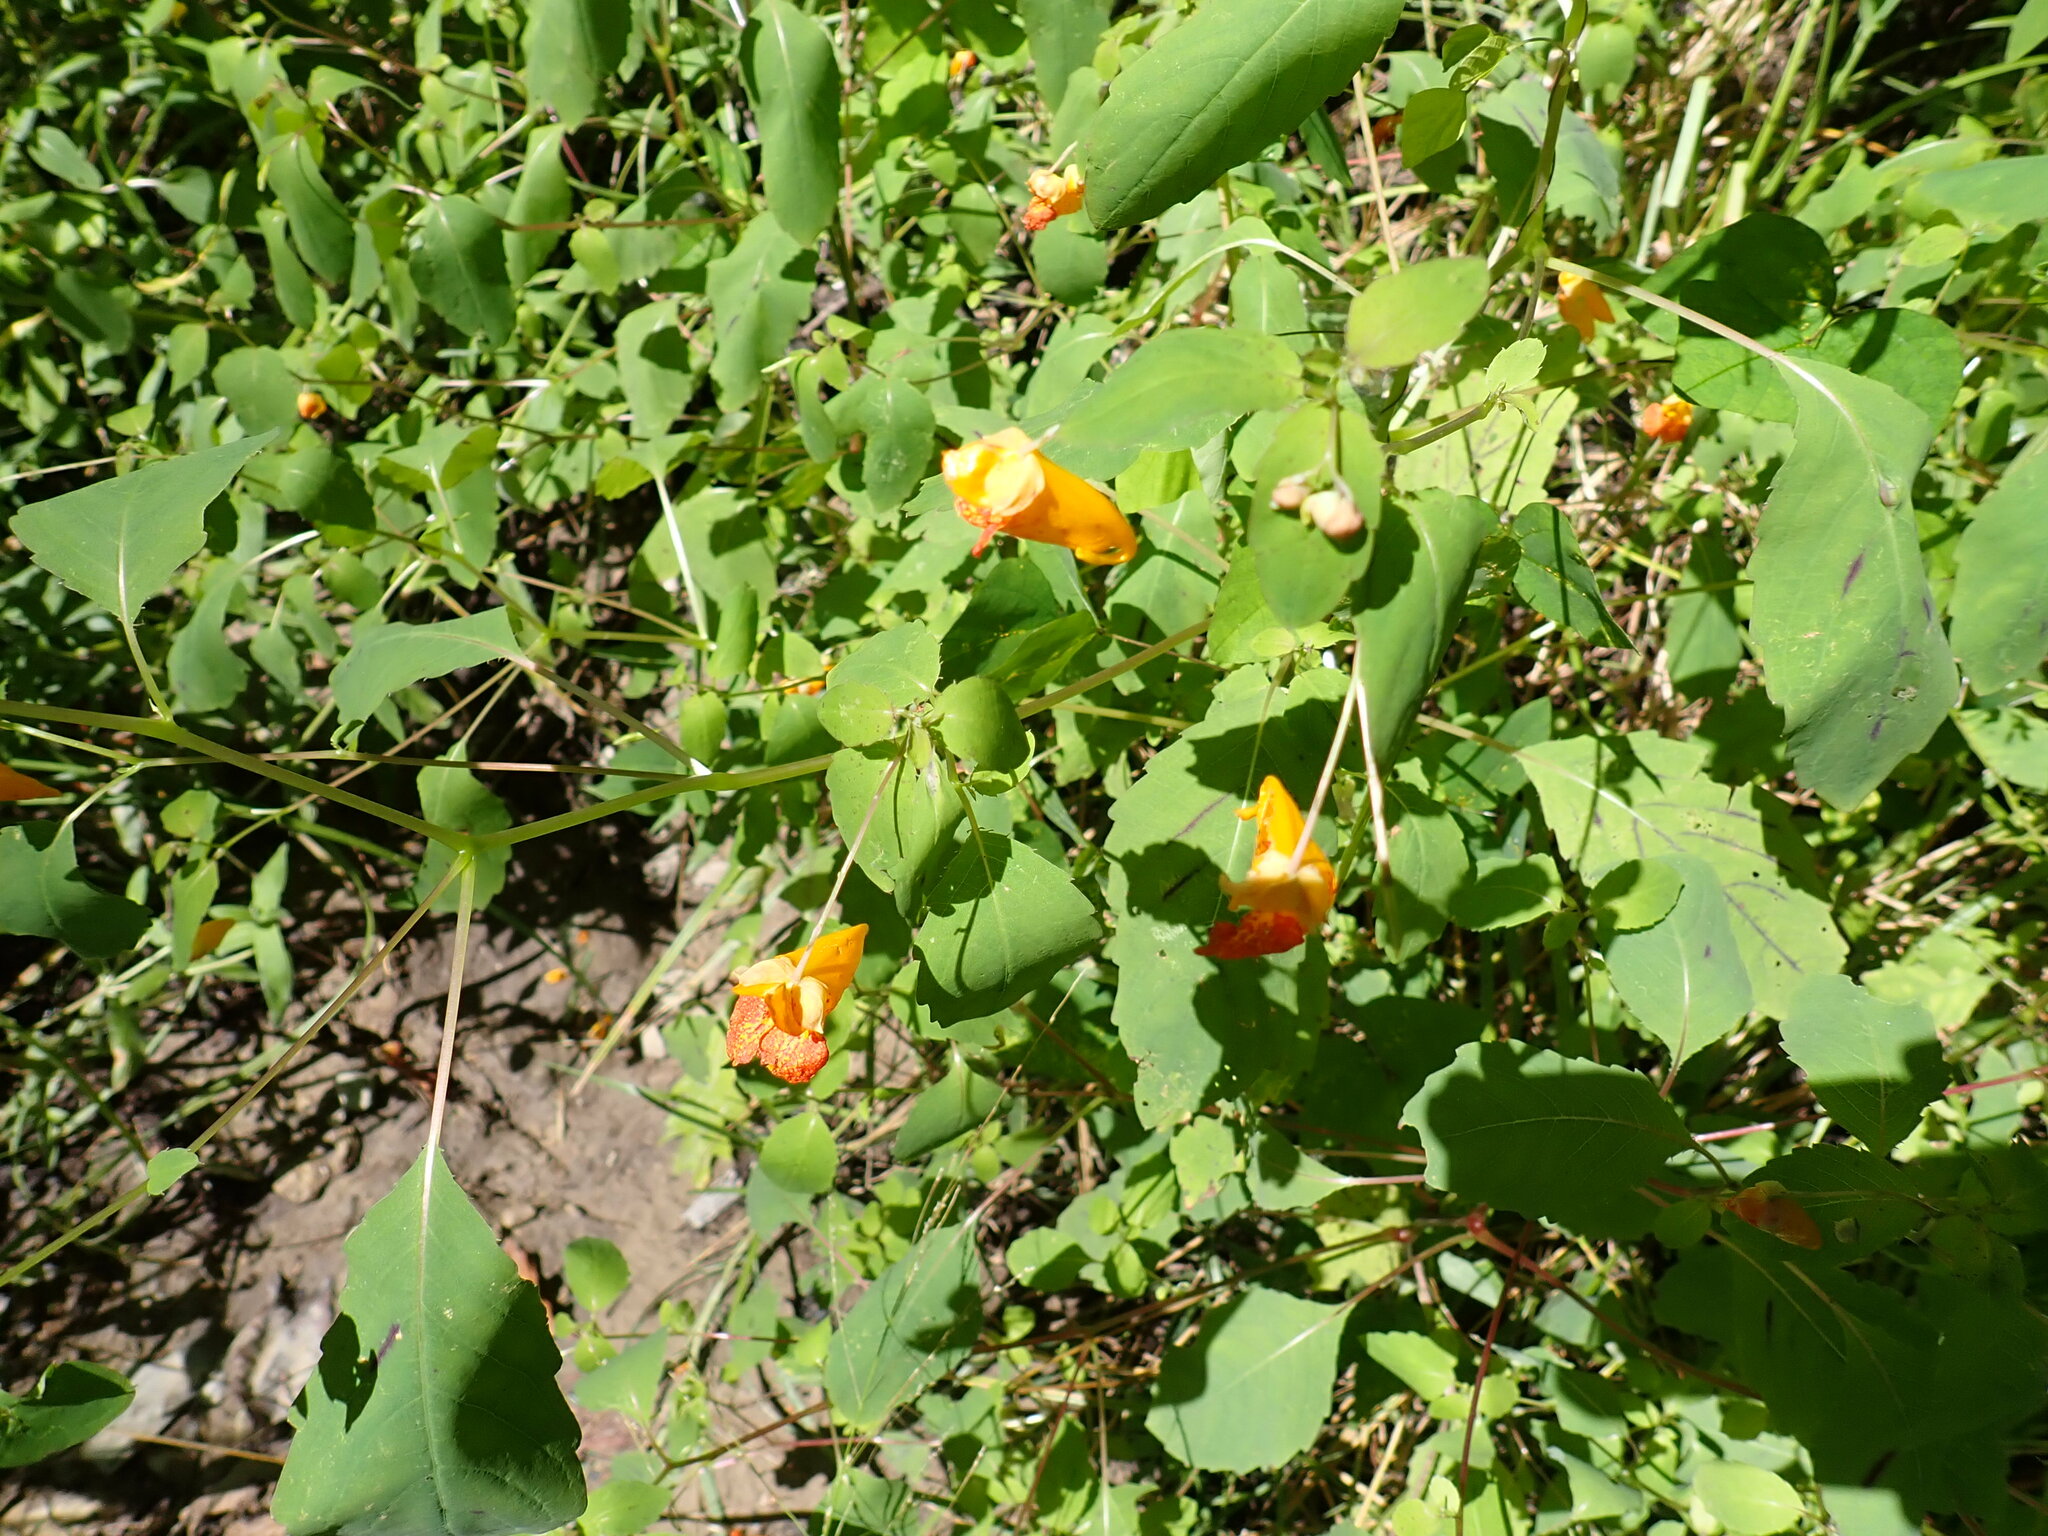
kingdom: Plantae
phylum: Tracheophyta
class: Magnoliopsida
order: Ericales
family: Balsaminaceae
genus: Impatiens
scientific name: Impatiens capensis
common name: Orange balsam
